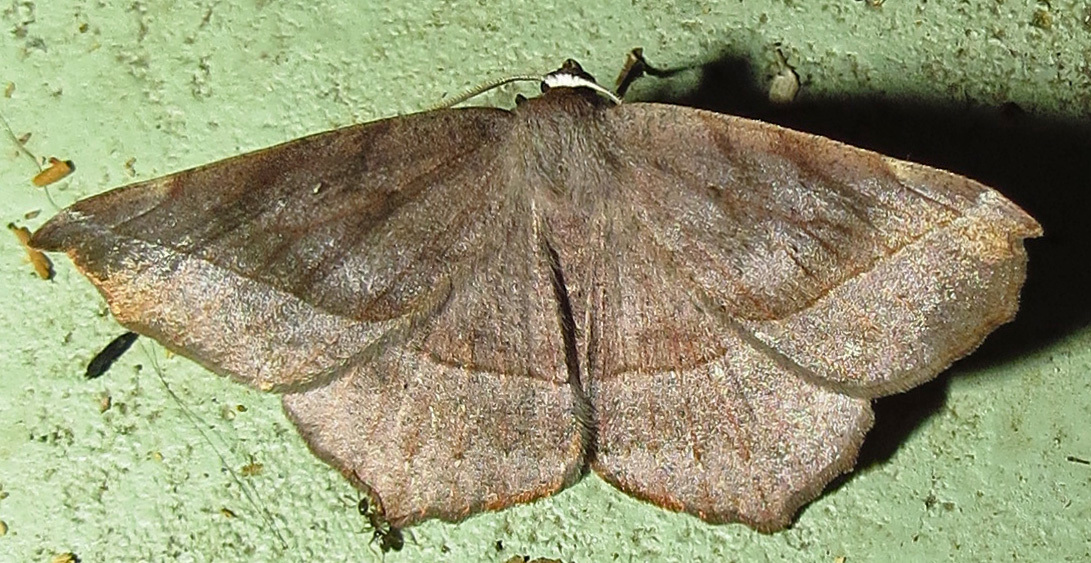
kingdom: Animalia
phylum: Arthropoda
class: Insecta
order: Lepidoptera
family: Geometridae
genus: Eutrapela
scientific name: Eutrapela clemataria
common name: Curved-toothed geometer
